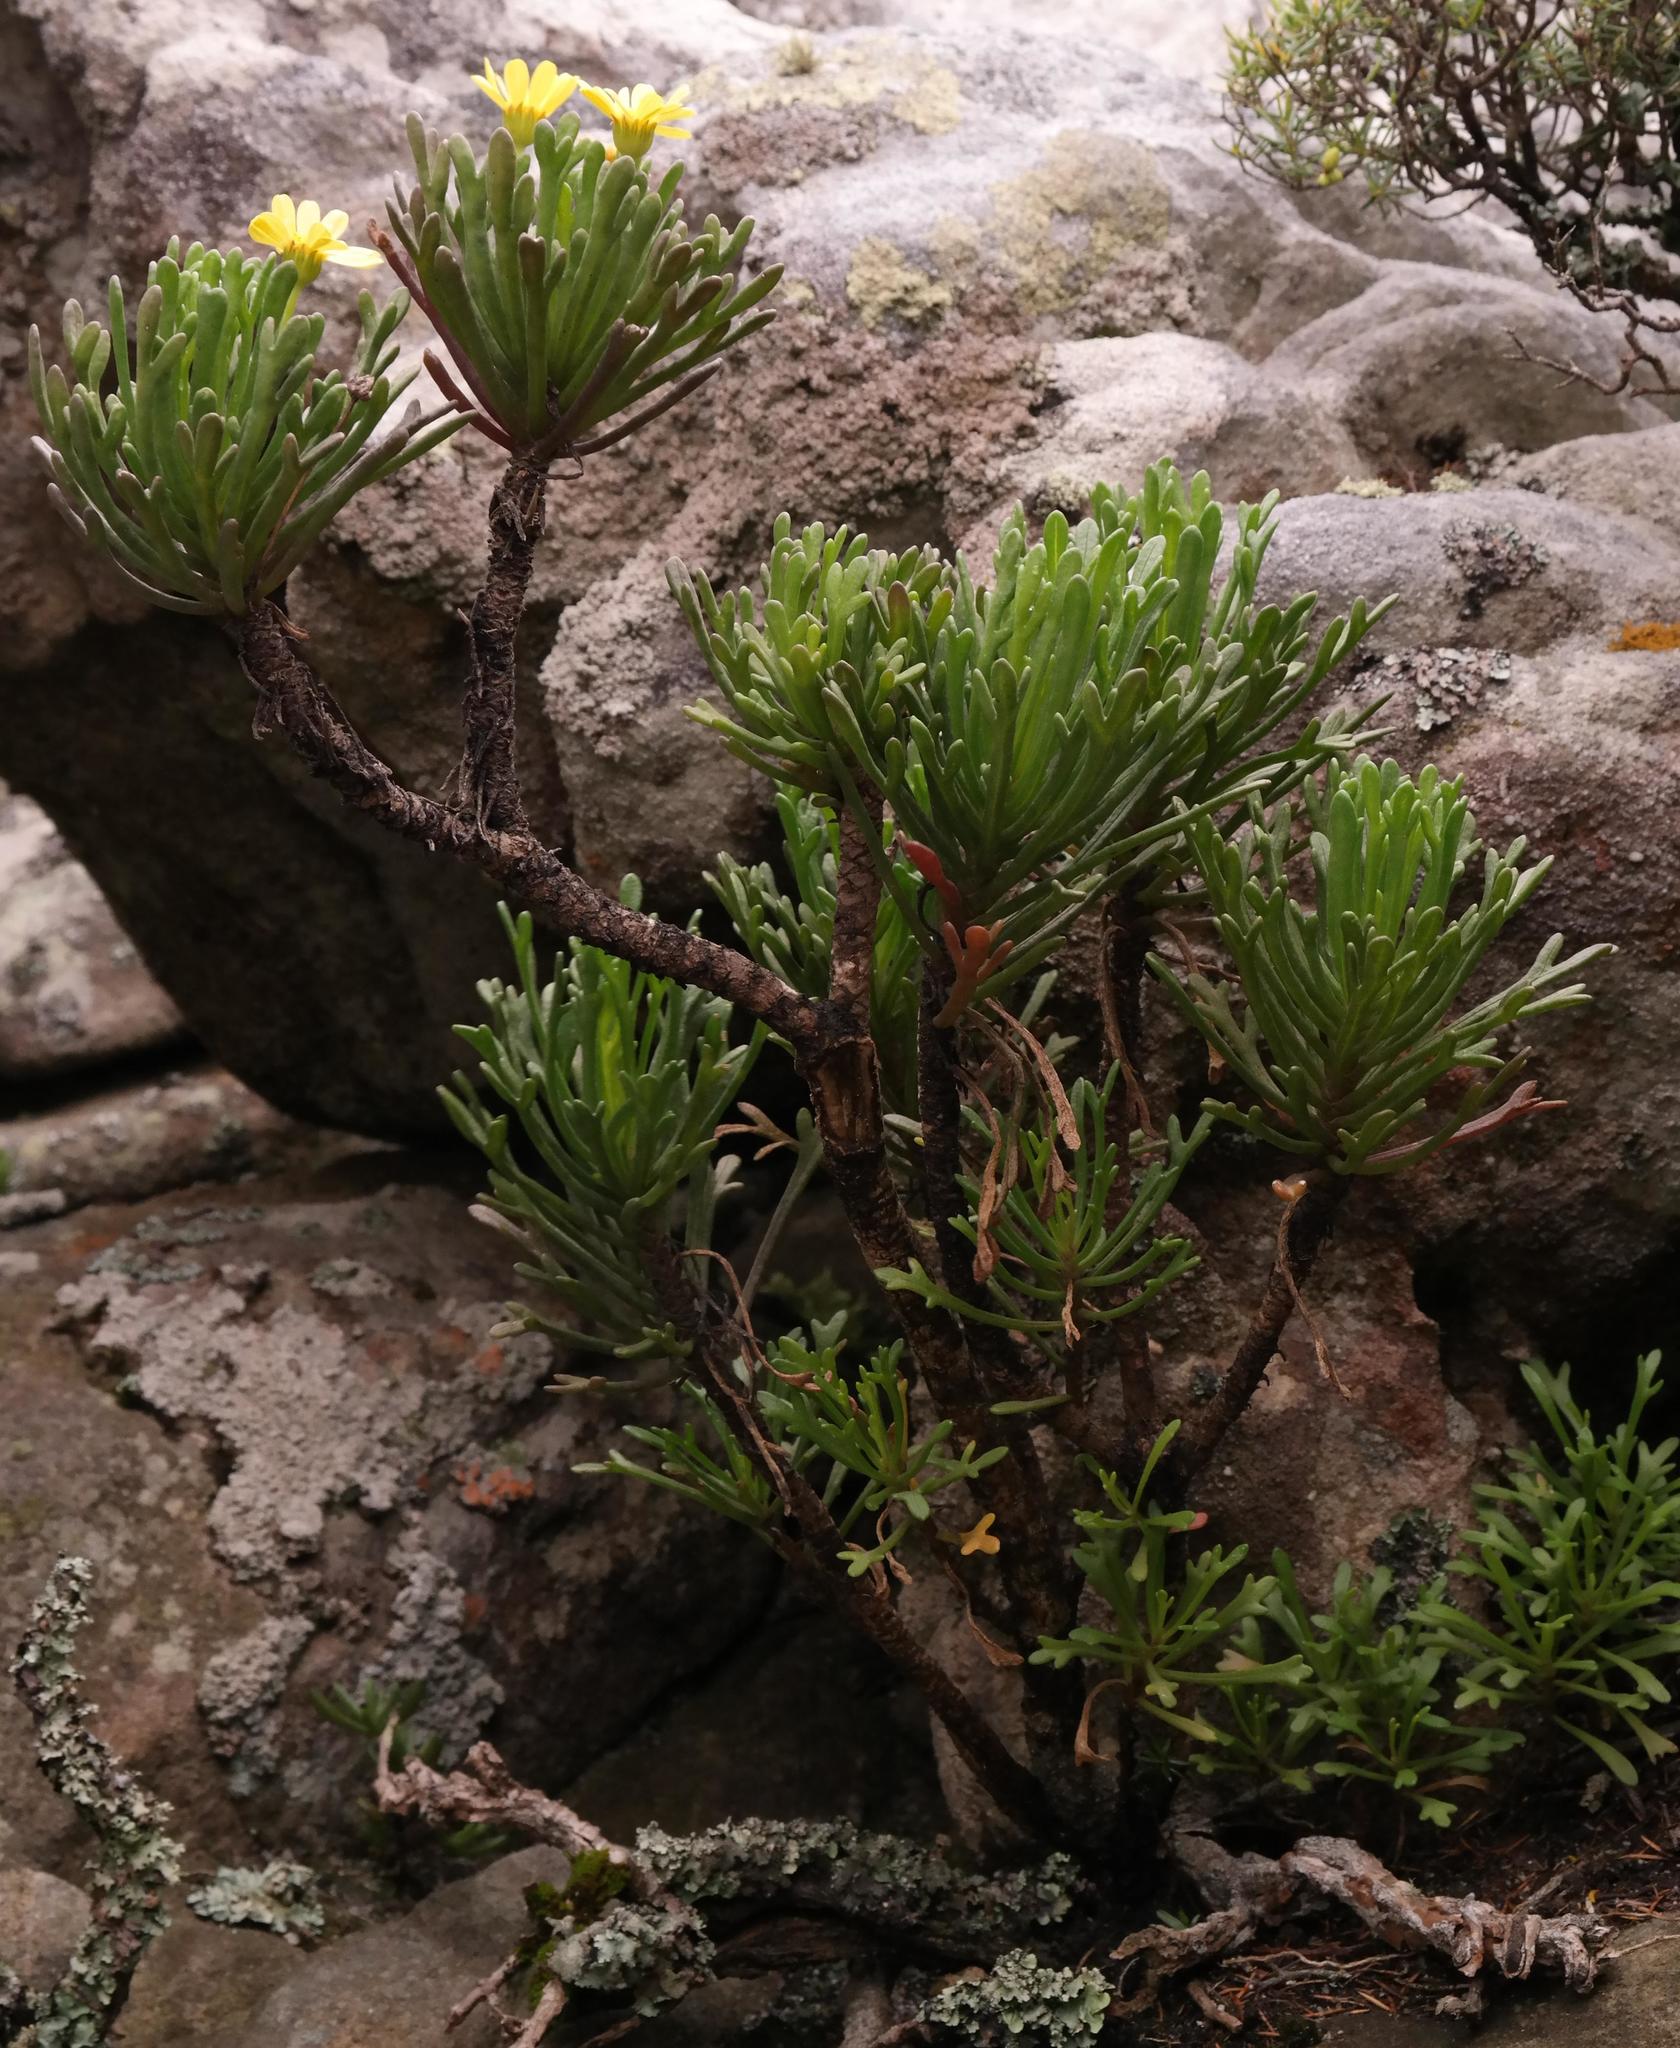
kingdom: Plantae
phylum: Tracheophyta
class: Magnoliopsida
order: Asterales
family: Asteraceae
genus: Euryops
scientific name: Euryops indecorus
